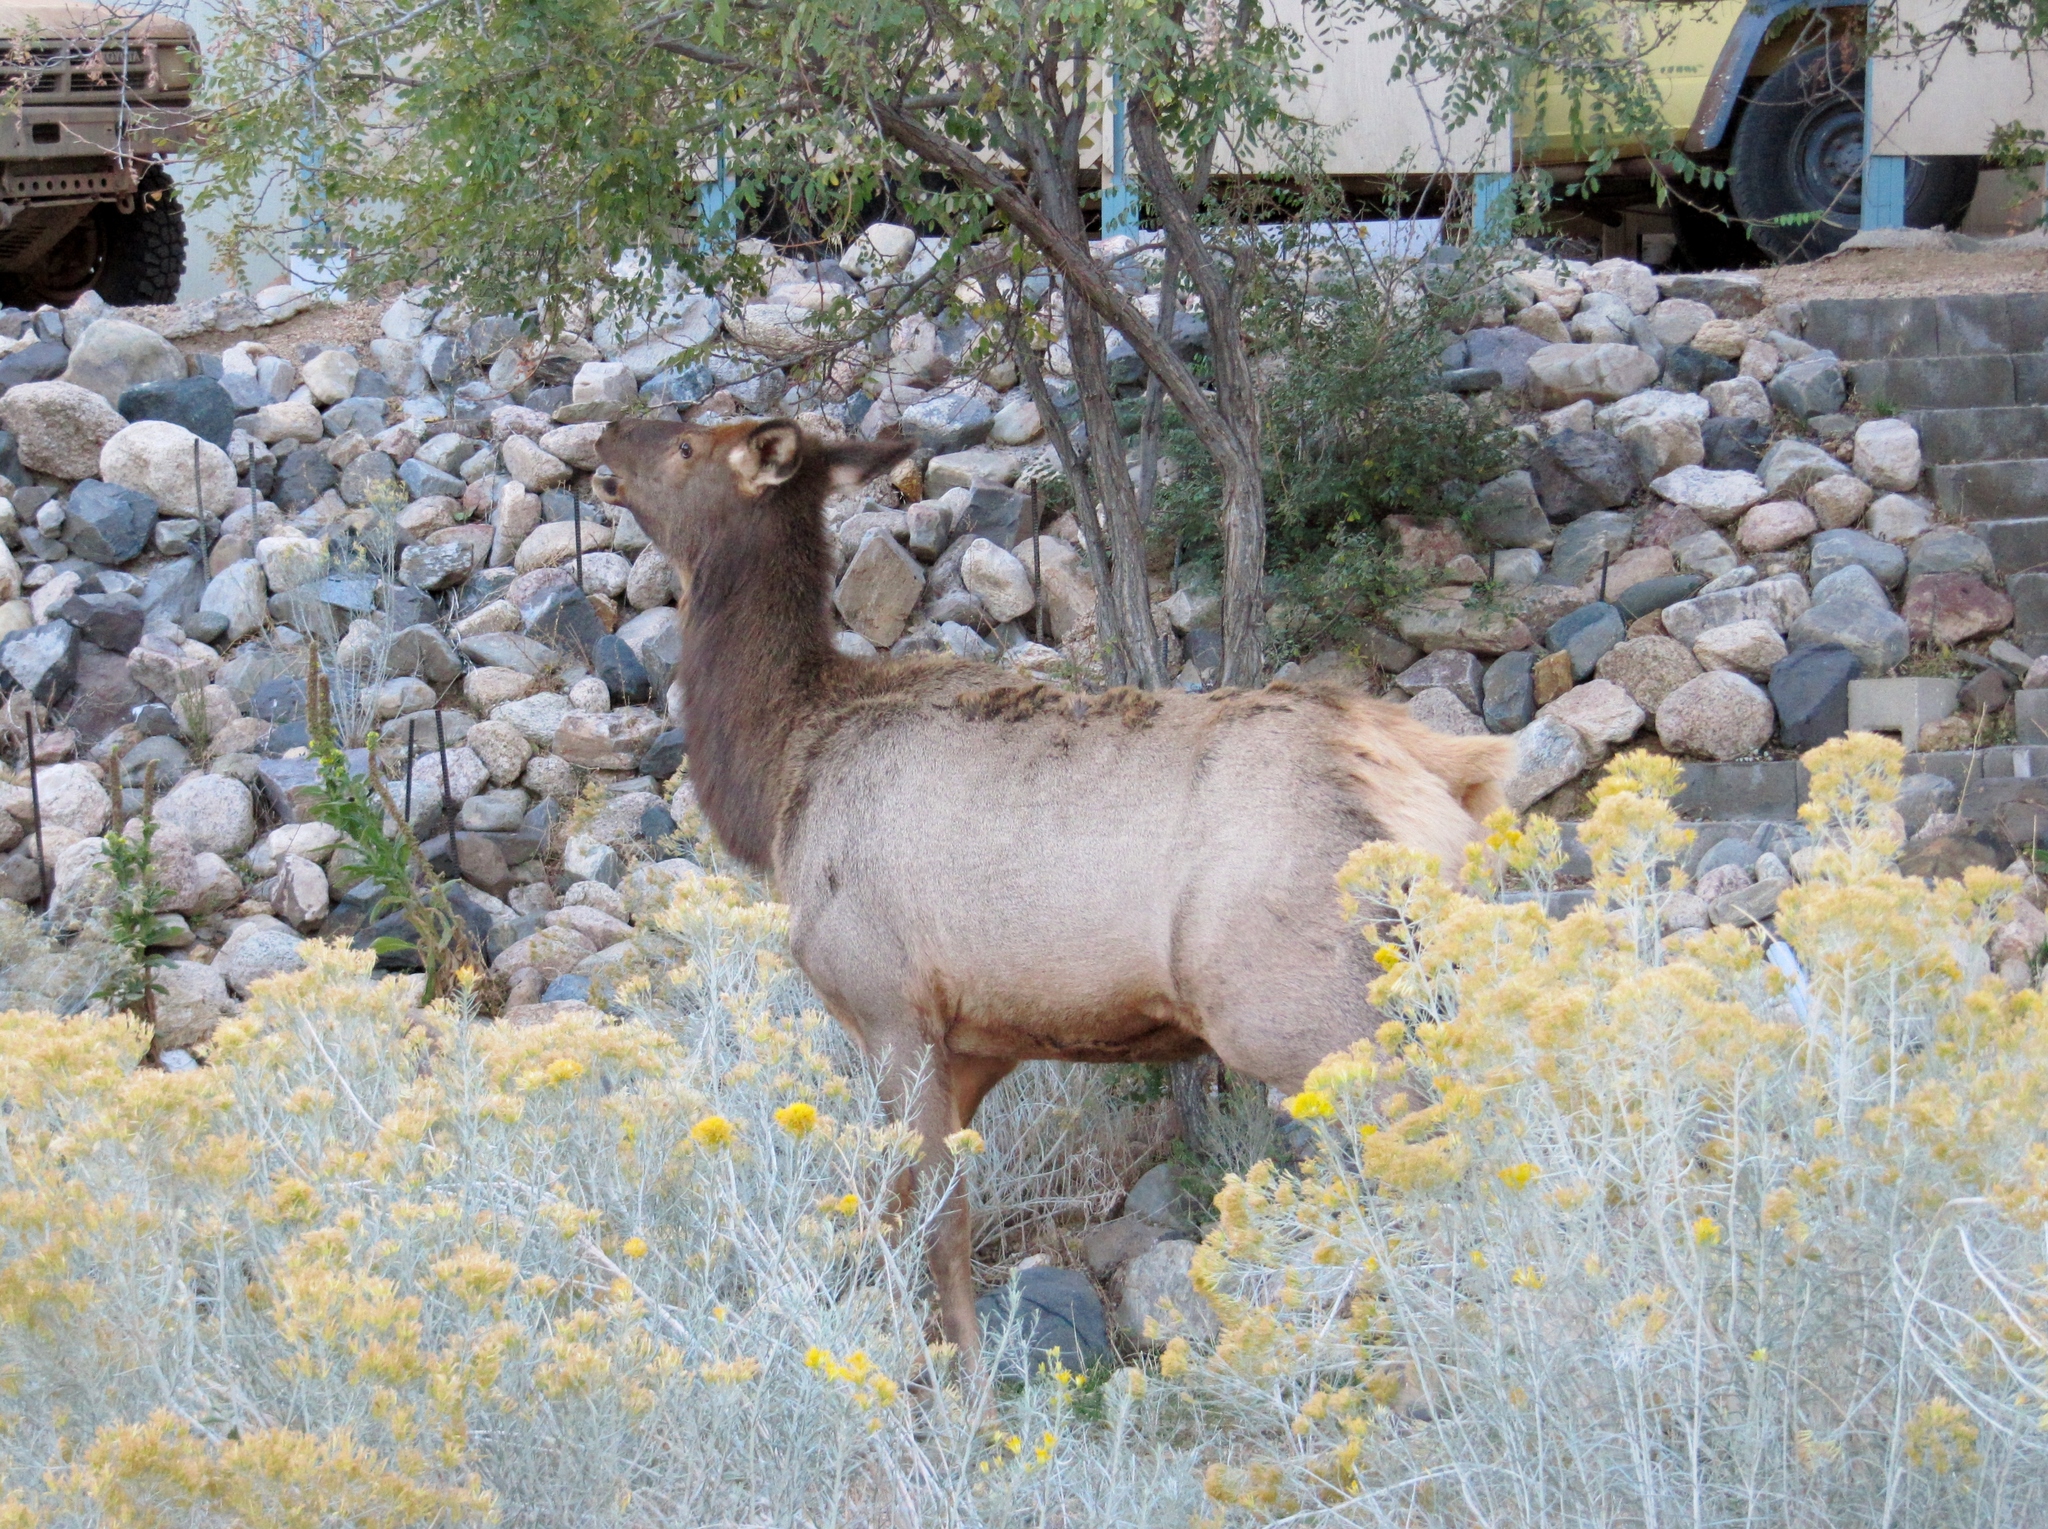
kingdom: Animalia
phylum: Chordata
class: Mammalia
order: Artiodactyla
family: Cervidae
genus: Cervus
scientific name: Cervus elaphus
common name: Red deer
